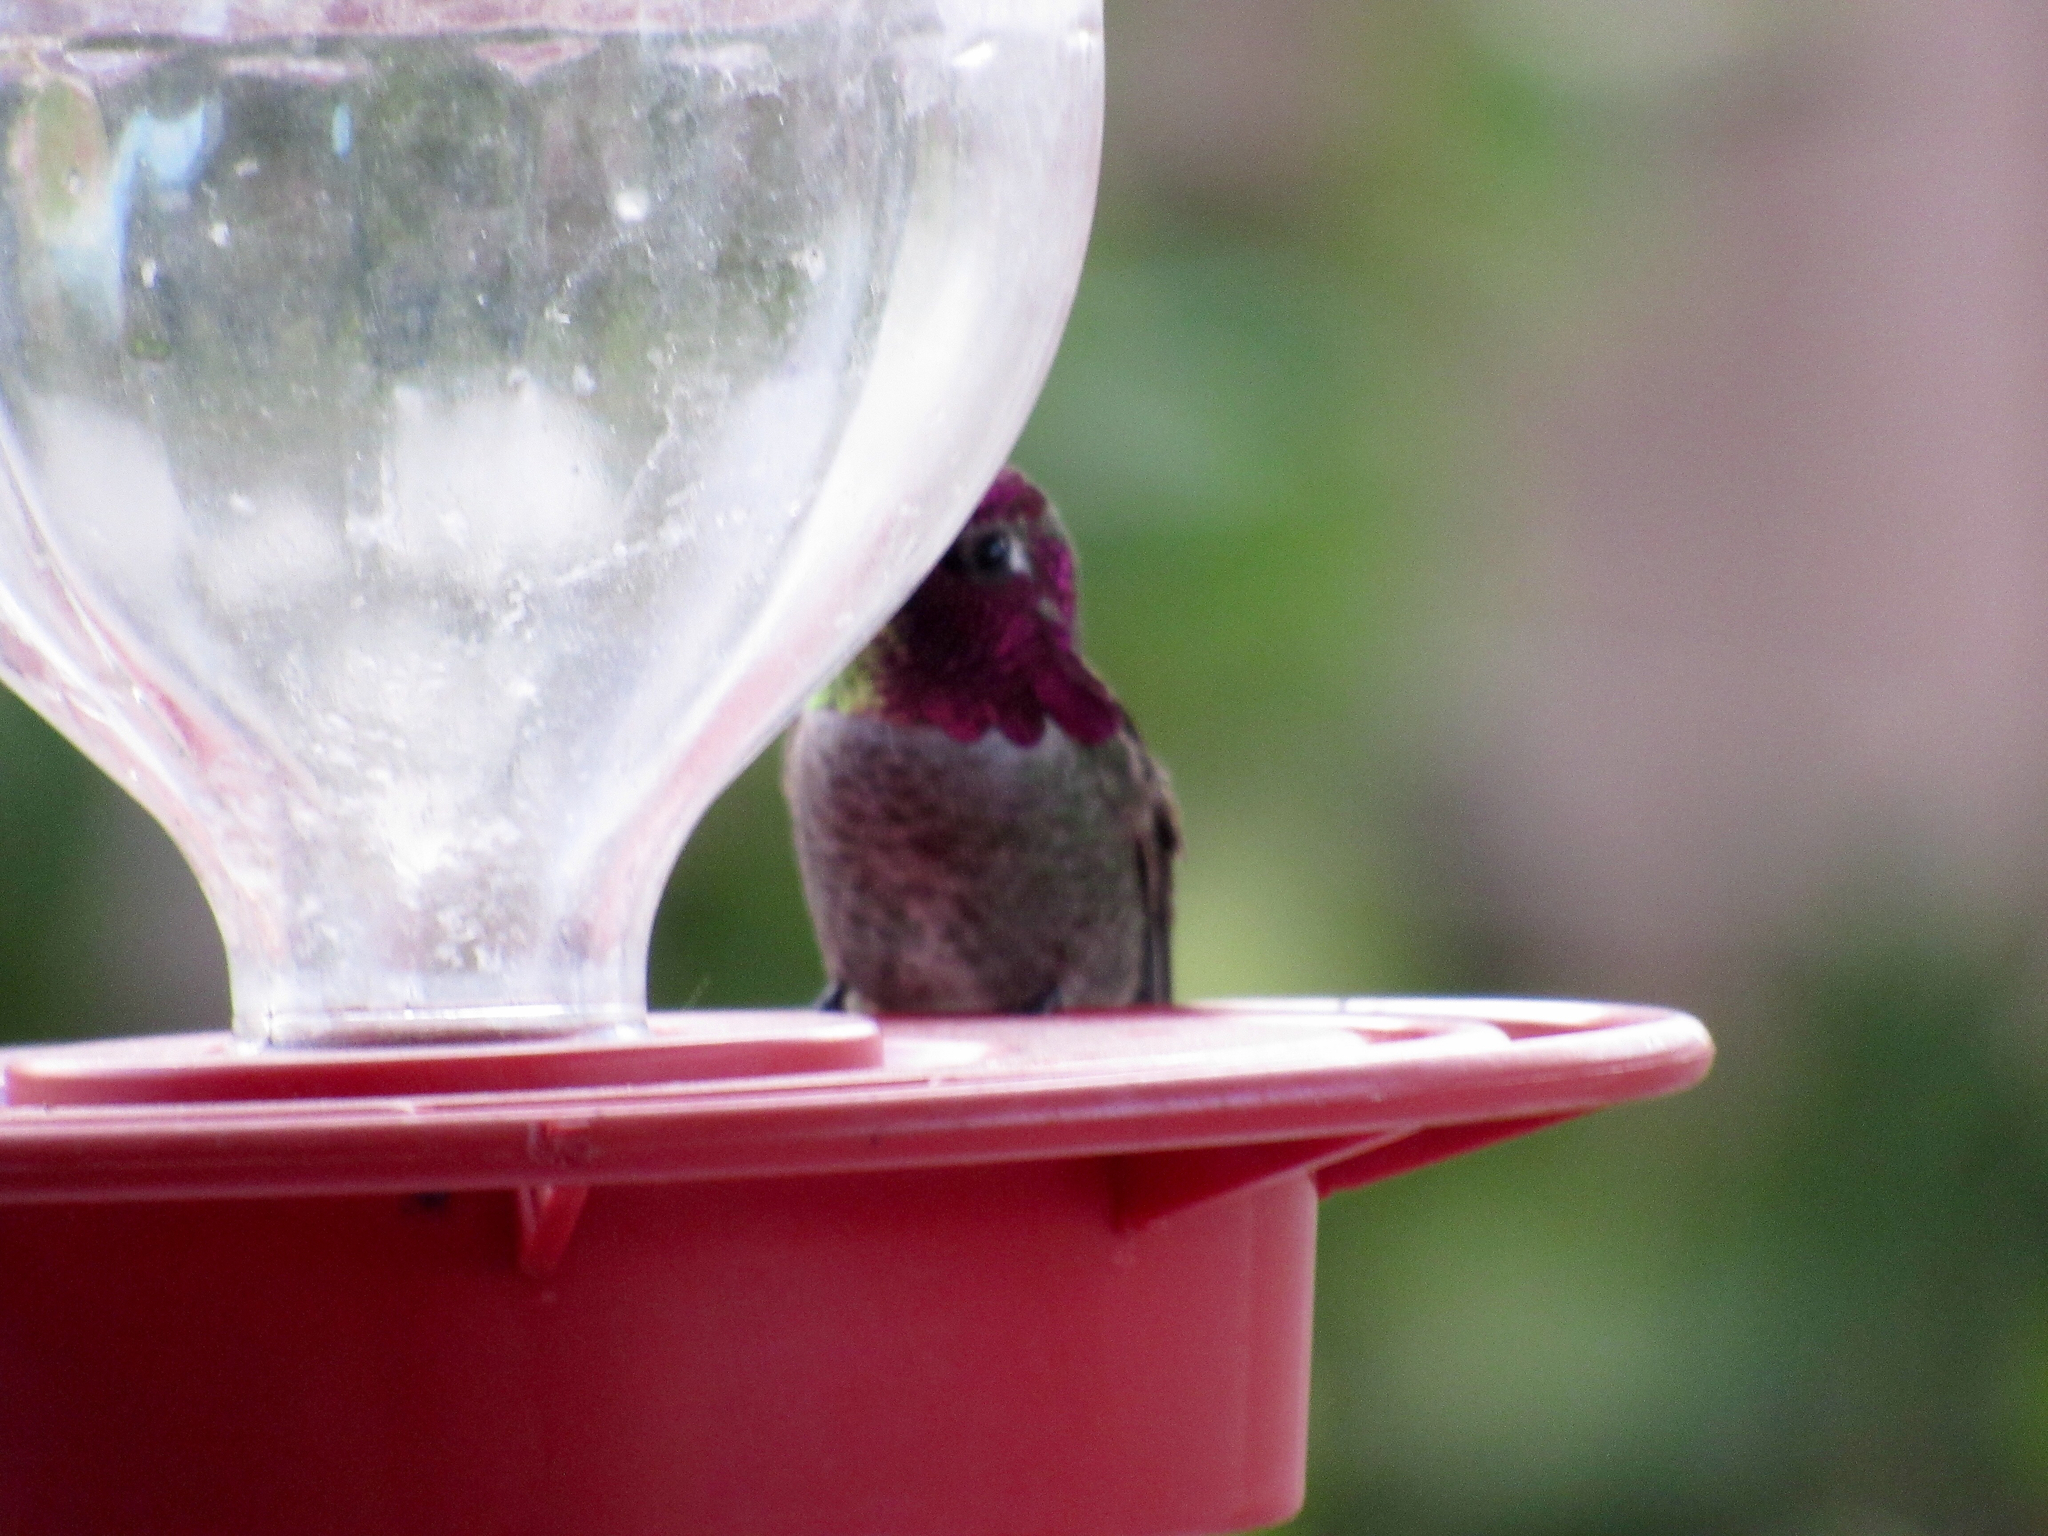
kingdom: Animalia
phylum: Chordata
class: Aves
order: Apodiformes
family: Trochilidae
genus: Calypte
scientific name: Calypte anna
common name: Anna's hummingbird
